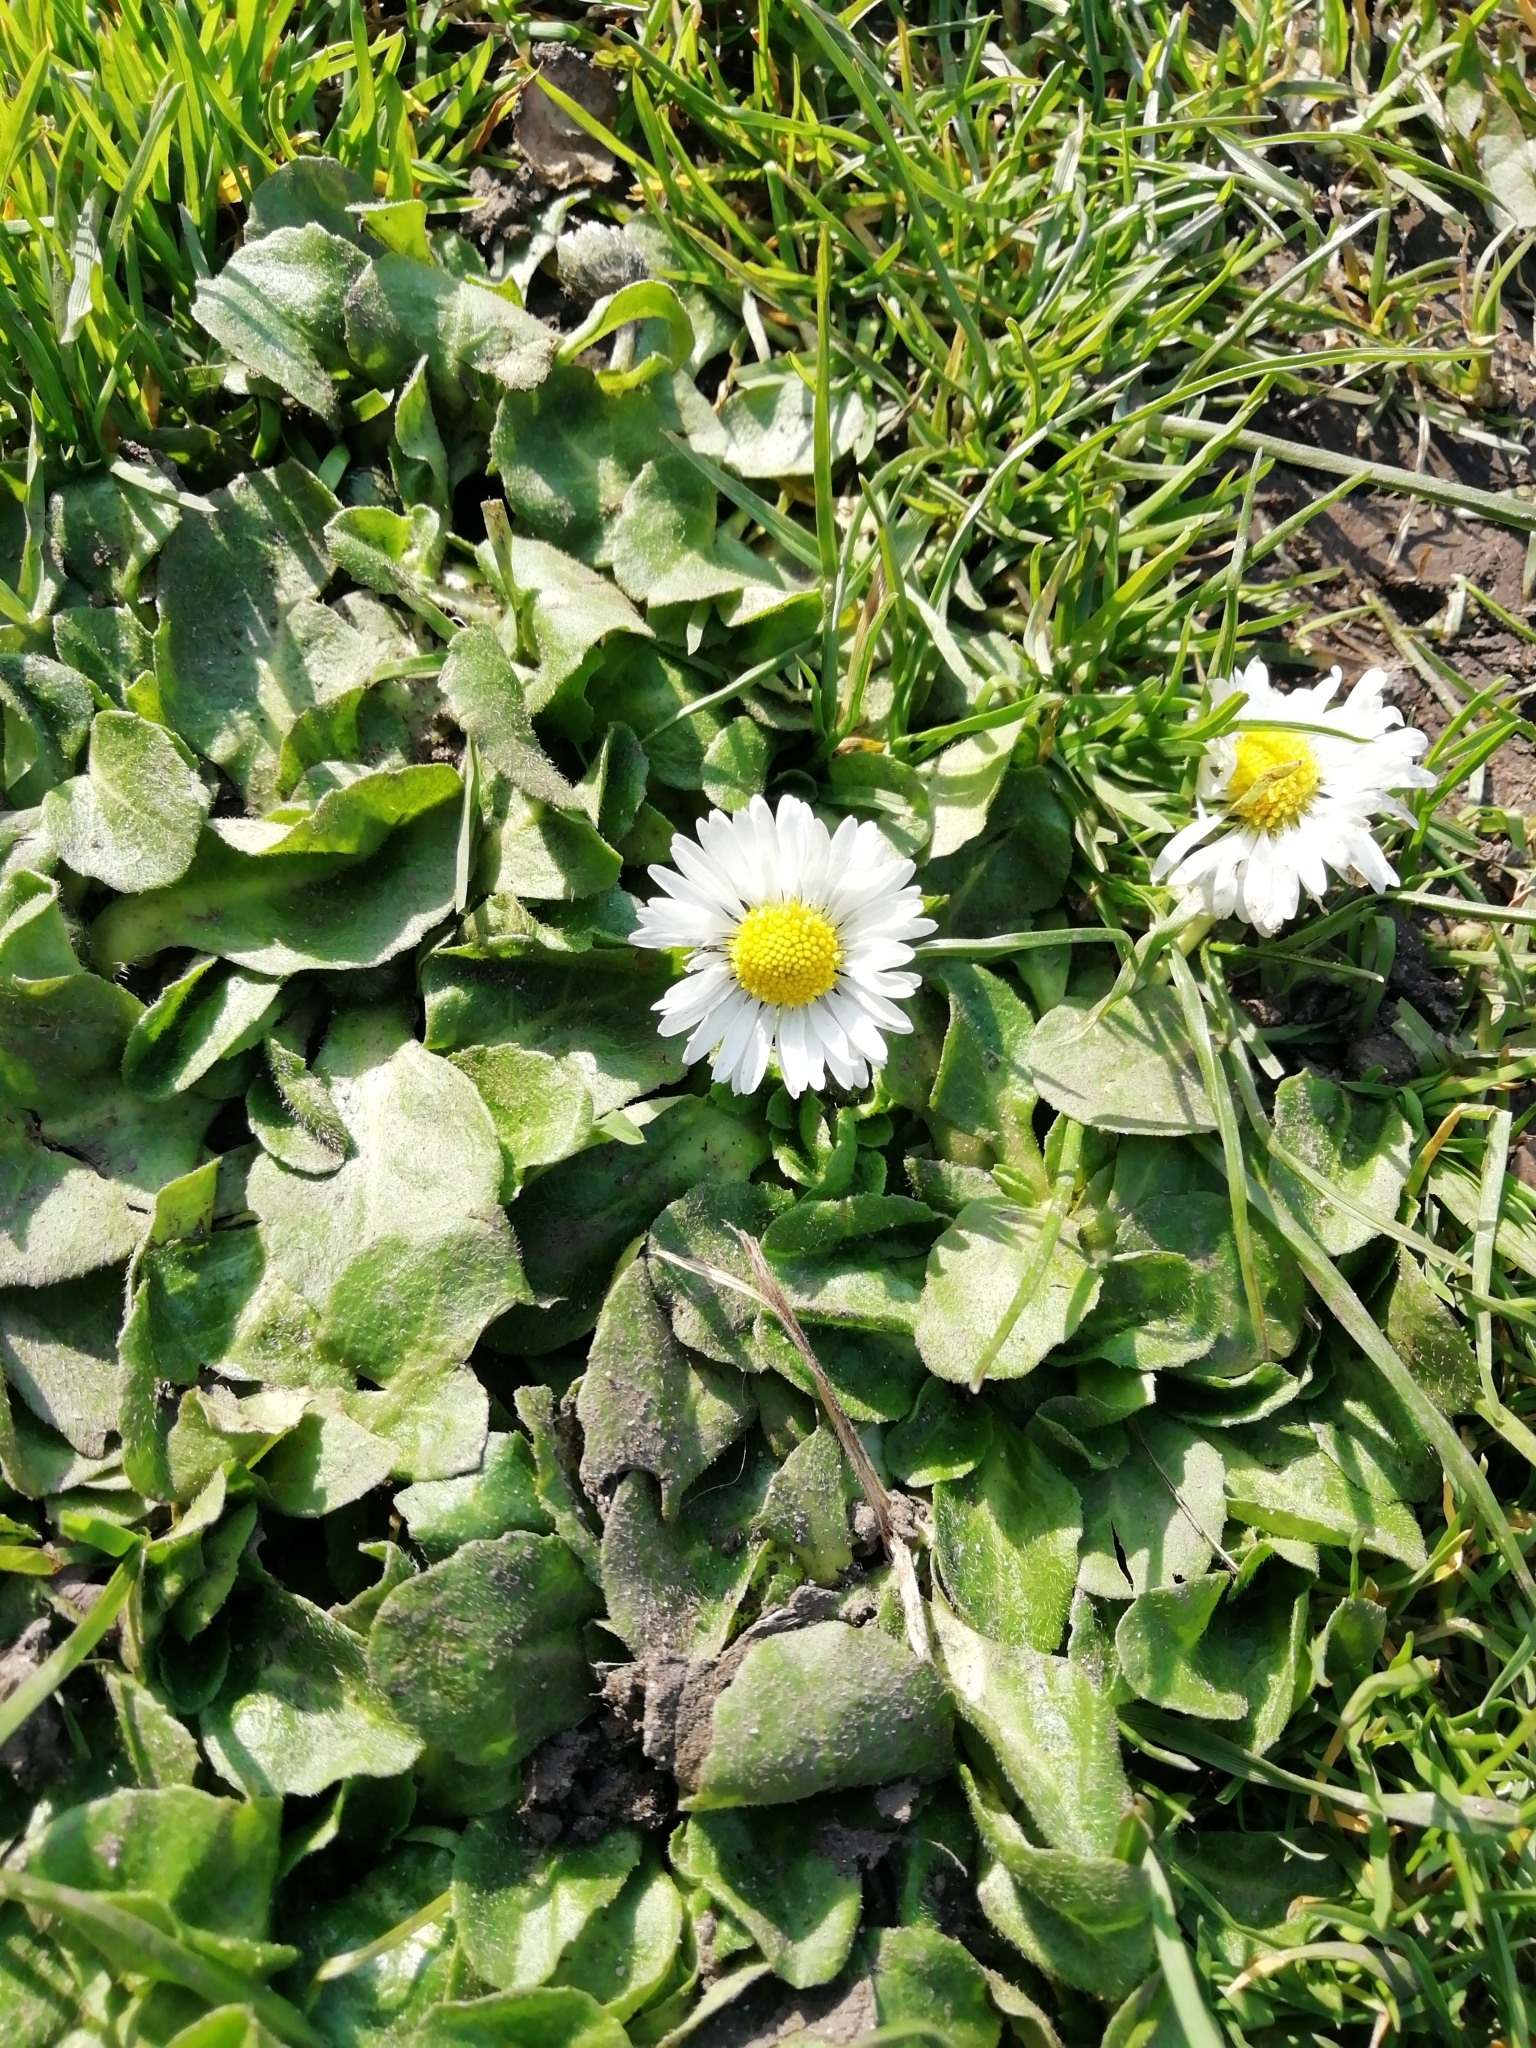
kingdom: Plantae
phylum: Tracheophyta
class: Magnoliopsida
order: Asterales
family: Asteraceae
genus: Bellis
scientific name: Bellis perennis
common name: Lawndaisy
